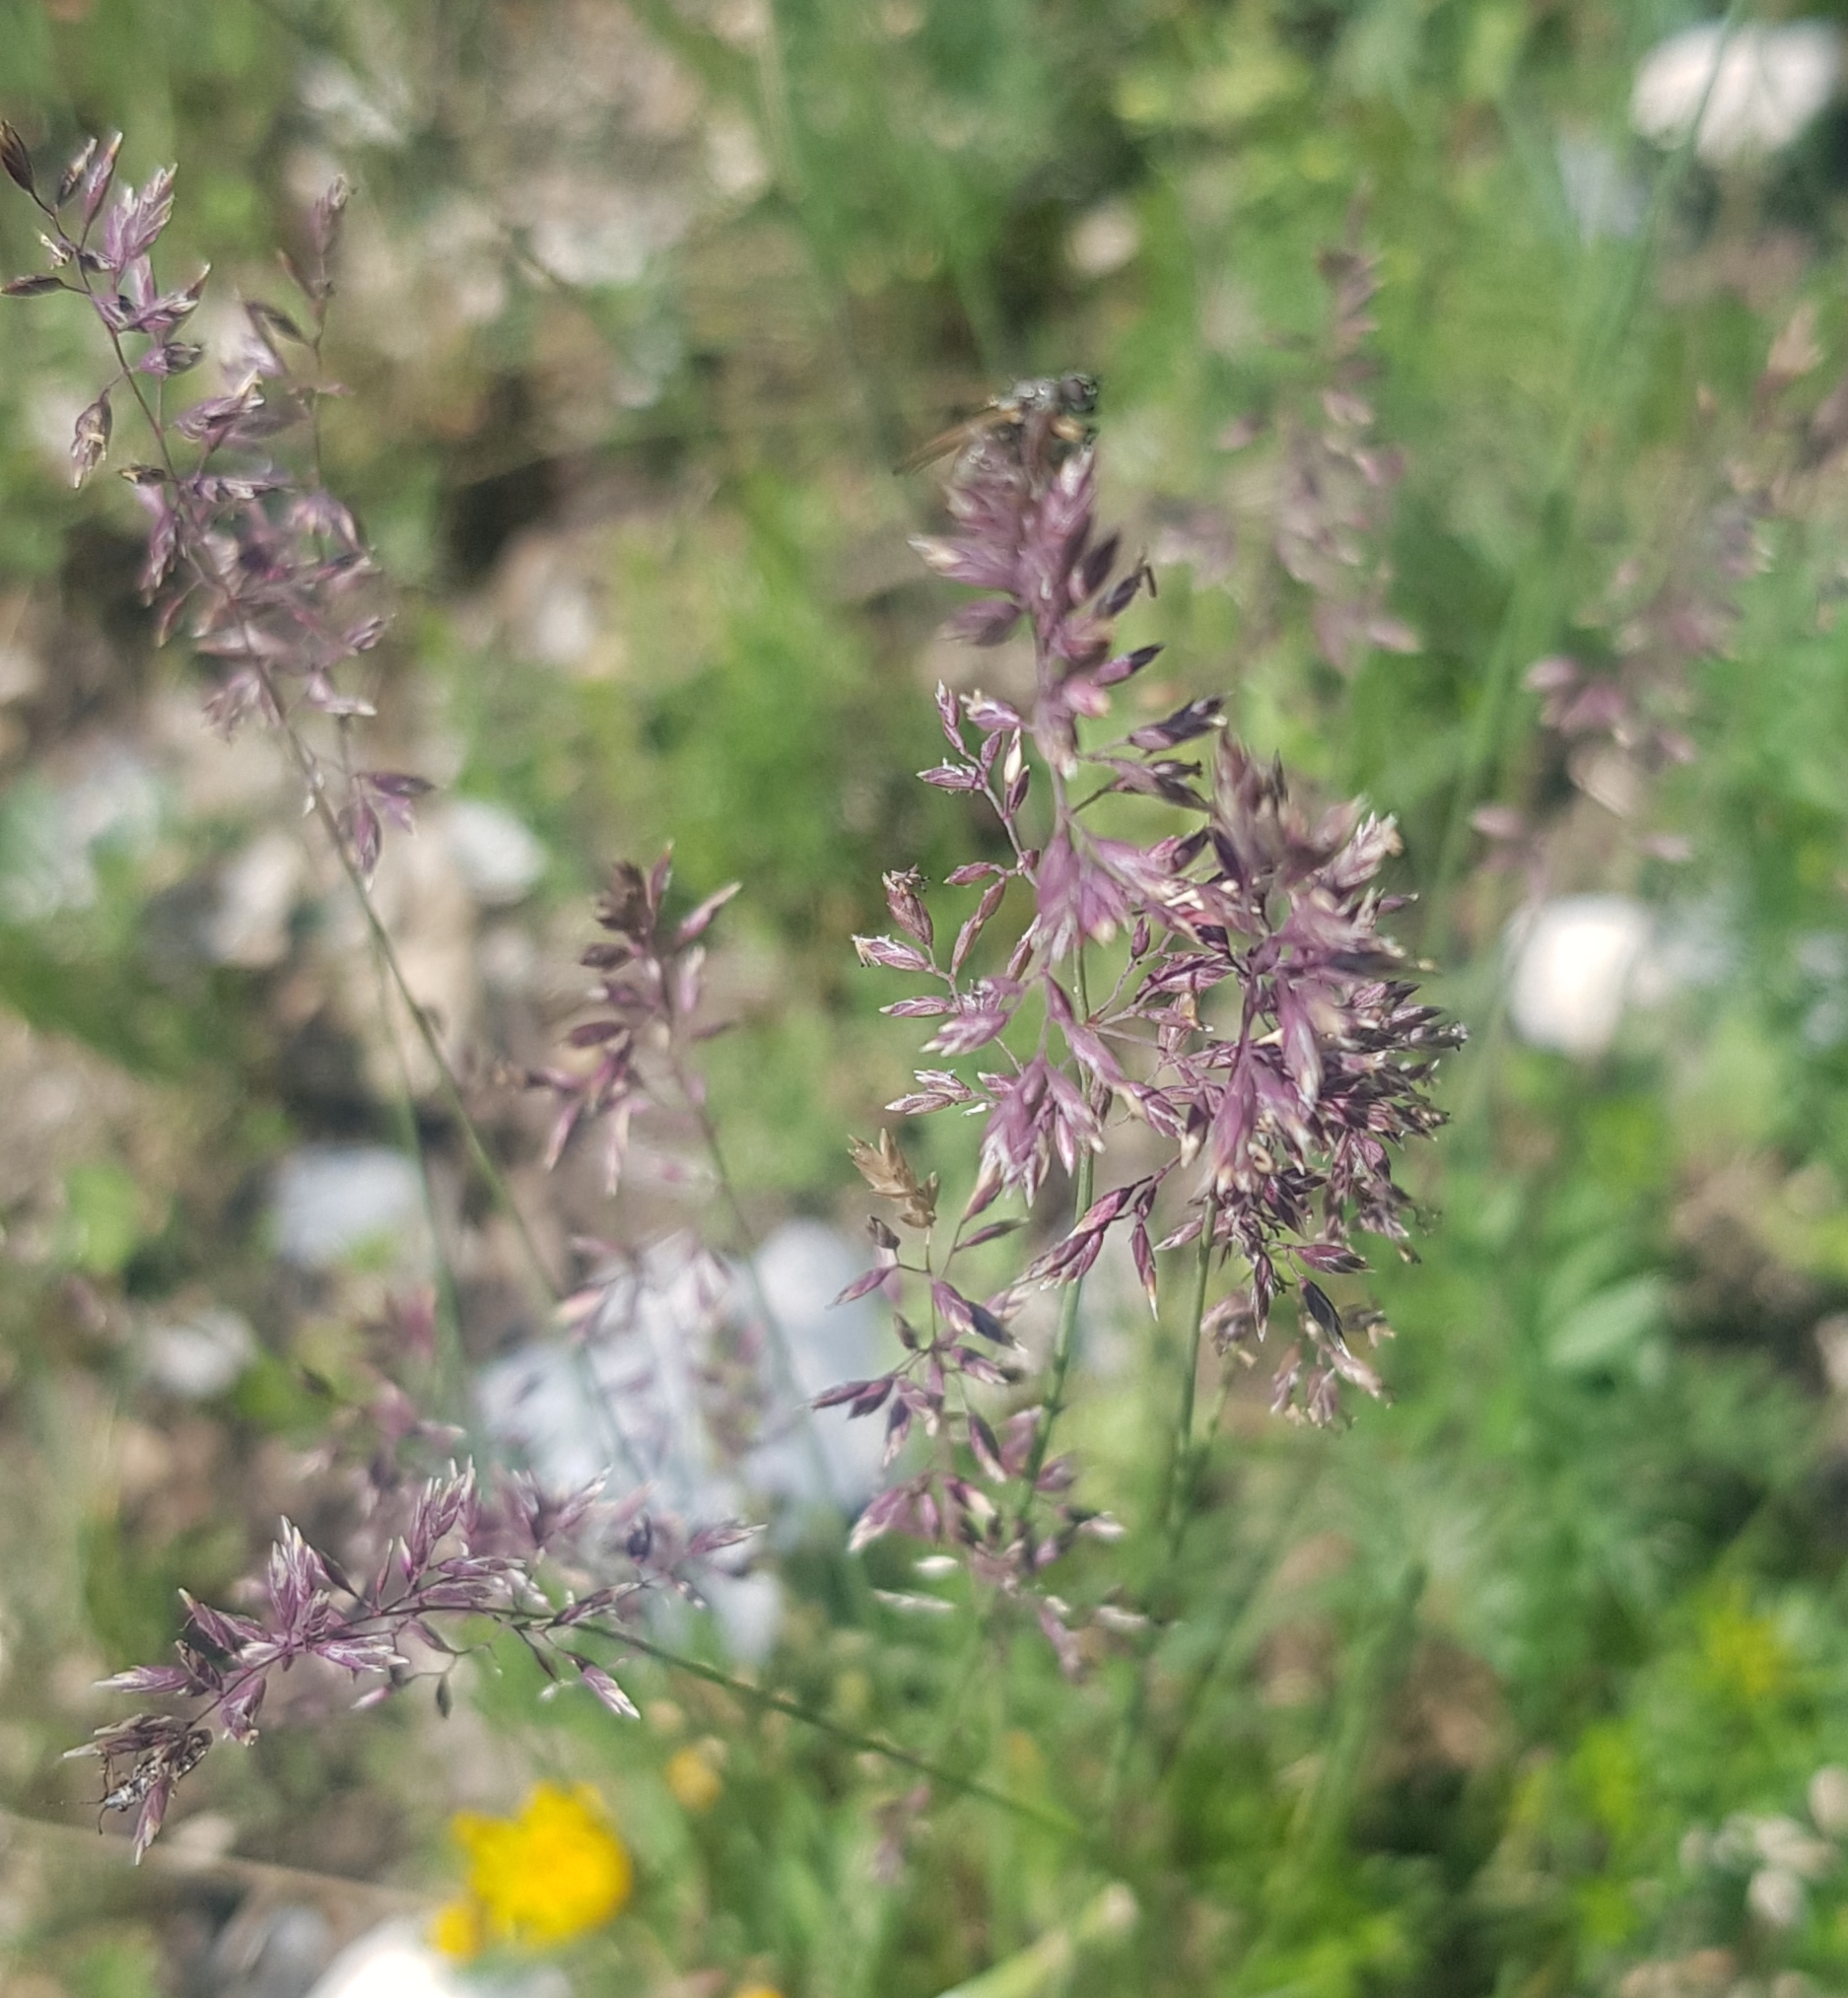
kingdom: Plantae
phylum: Tracheophyta
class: Liliopsida
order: Poales
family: Poaceae
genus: Poa
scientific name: Poa alpina
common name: Alpine bluegrass
